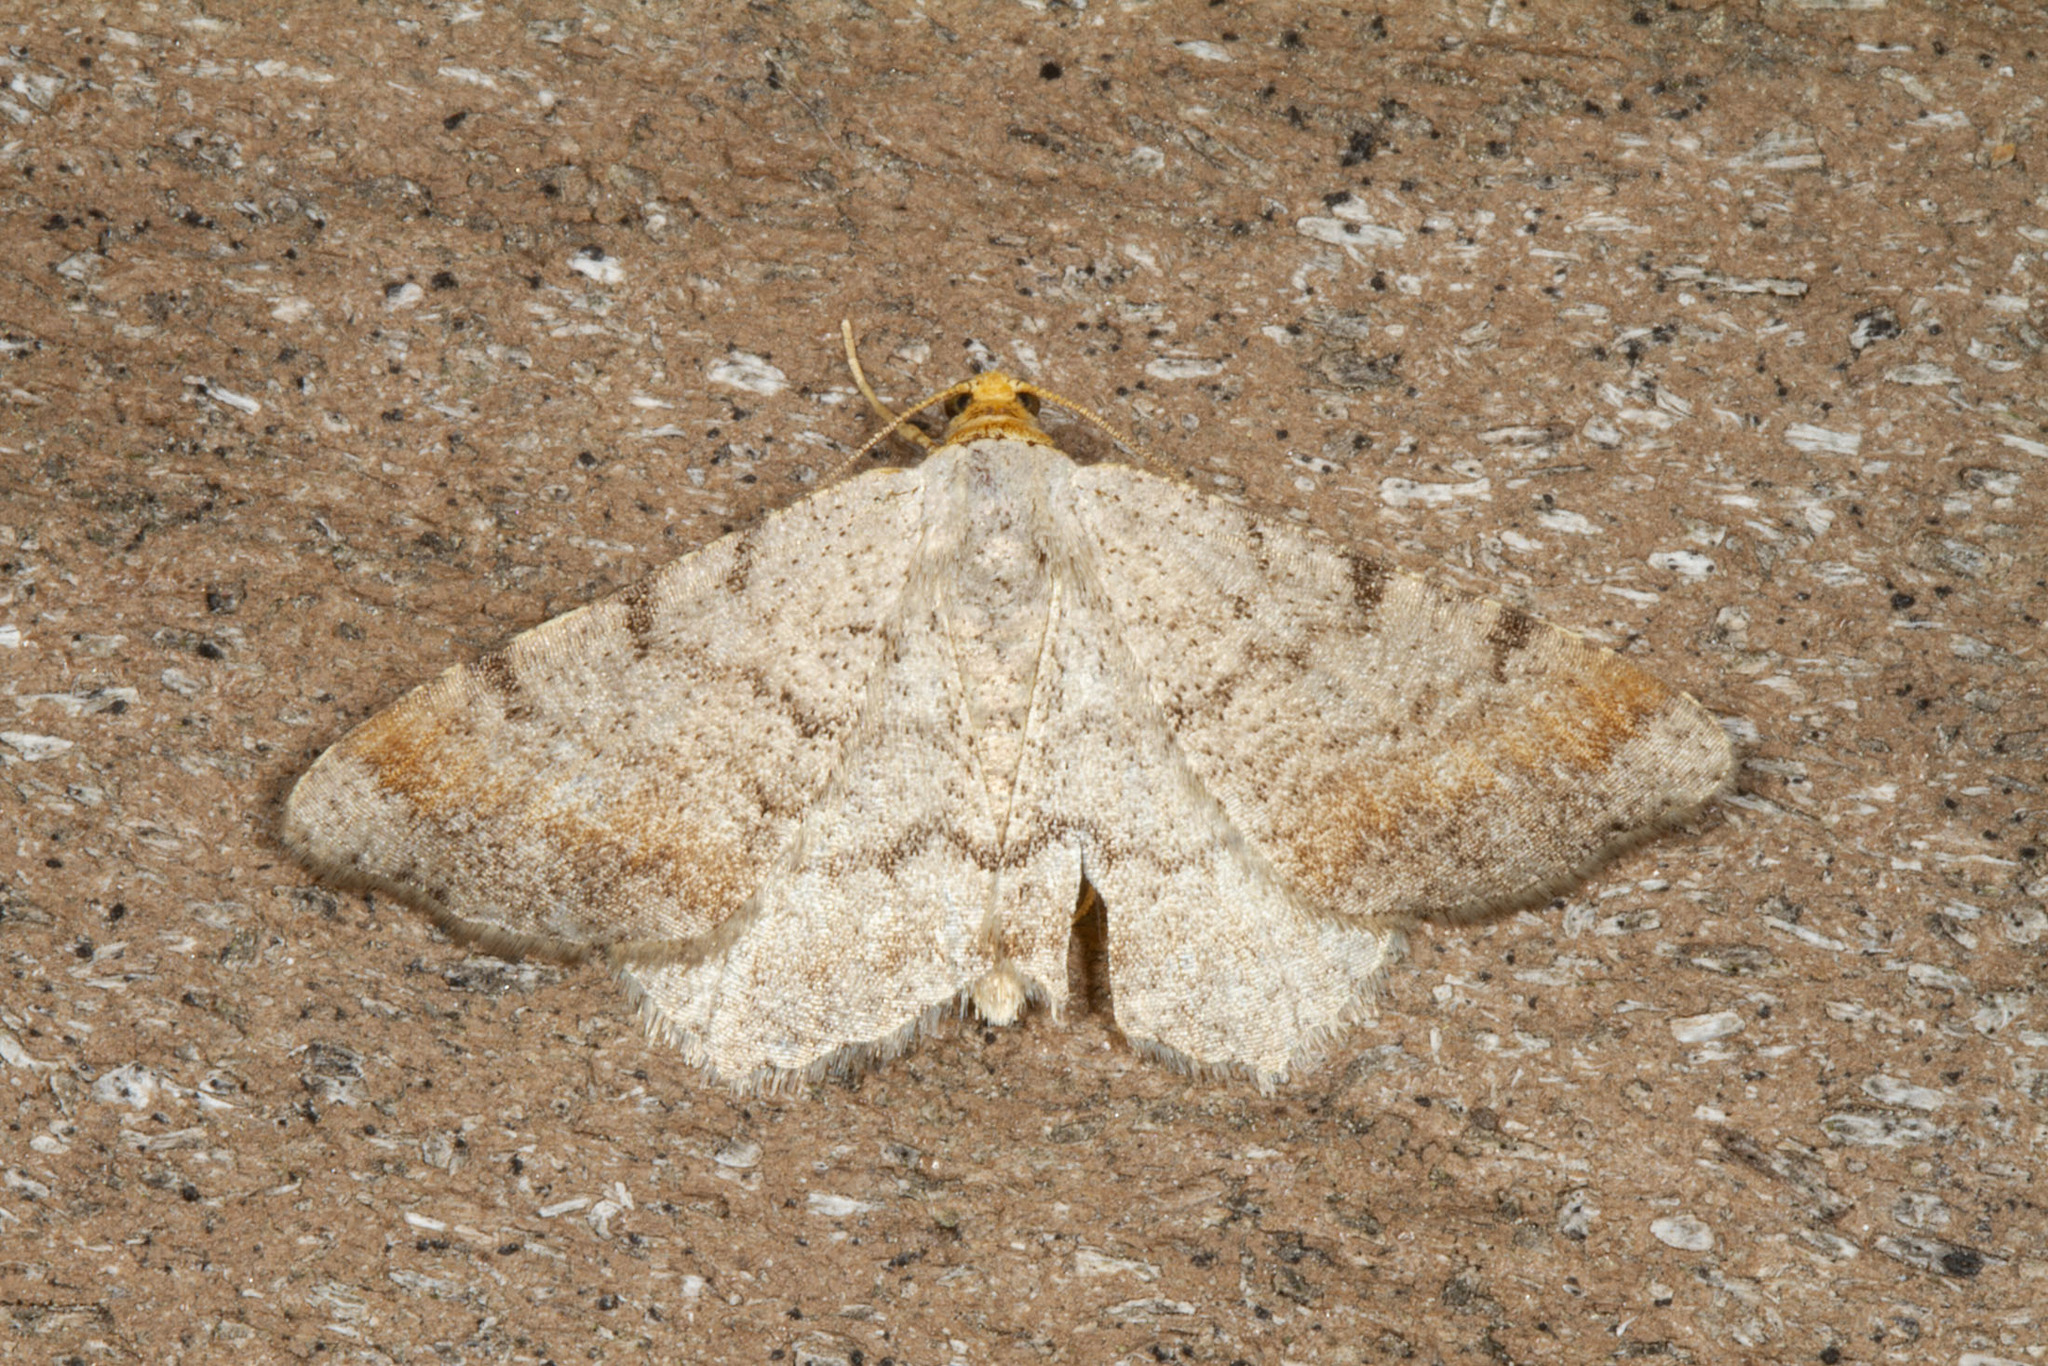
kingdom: Animalia
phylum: Arthropoda
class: Insecta
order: Lepidoptera
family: Geometridae
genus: Macaria
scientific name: Macaria minorata
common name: Minor angle moth
